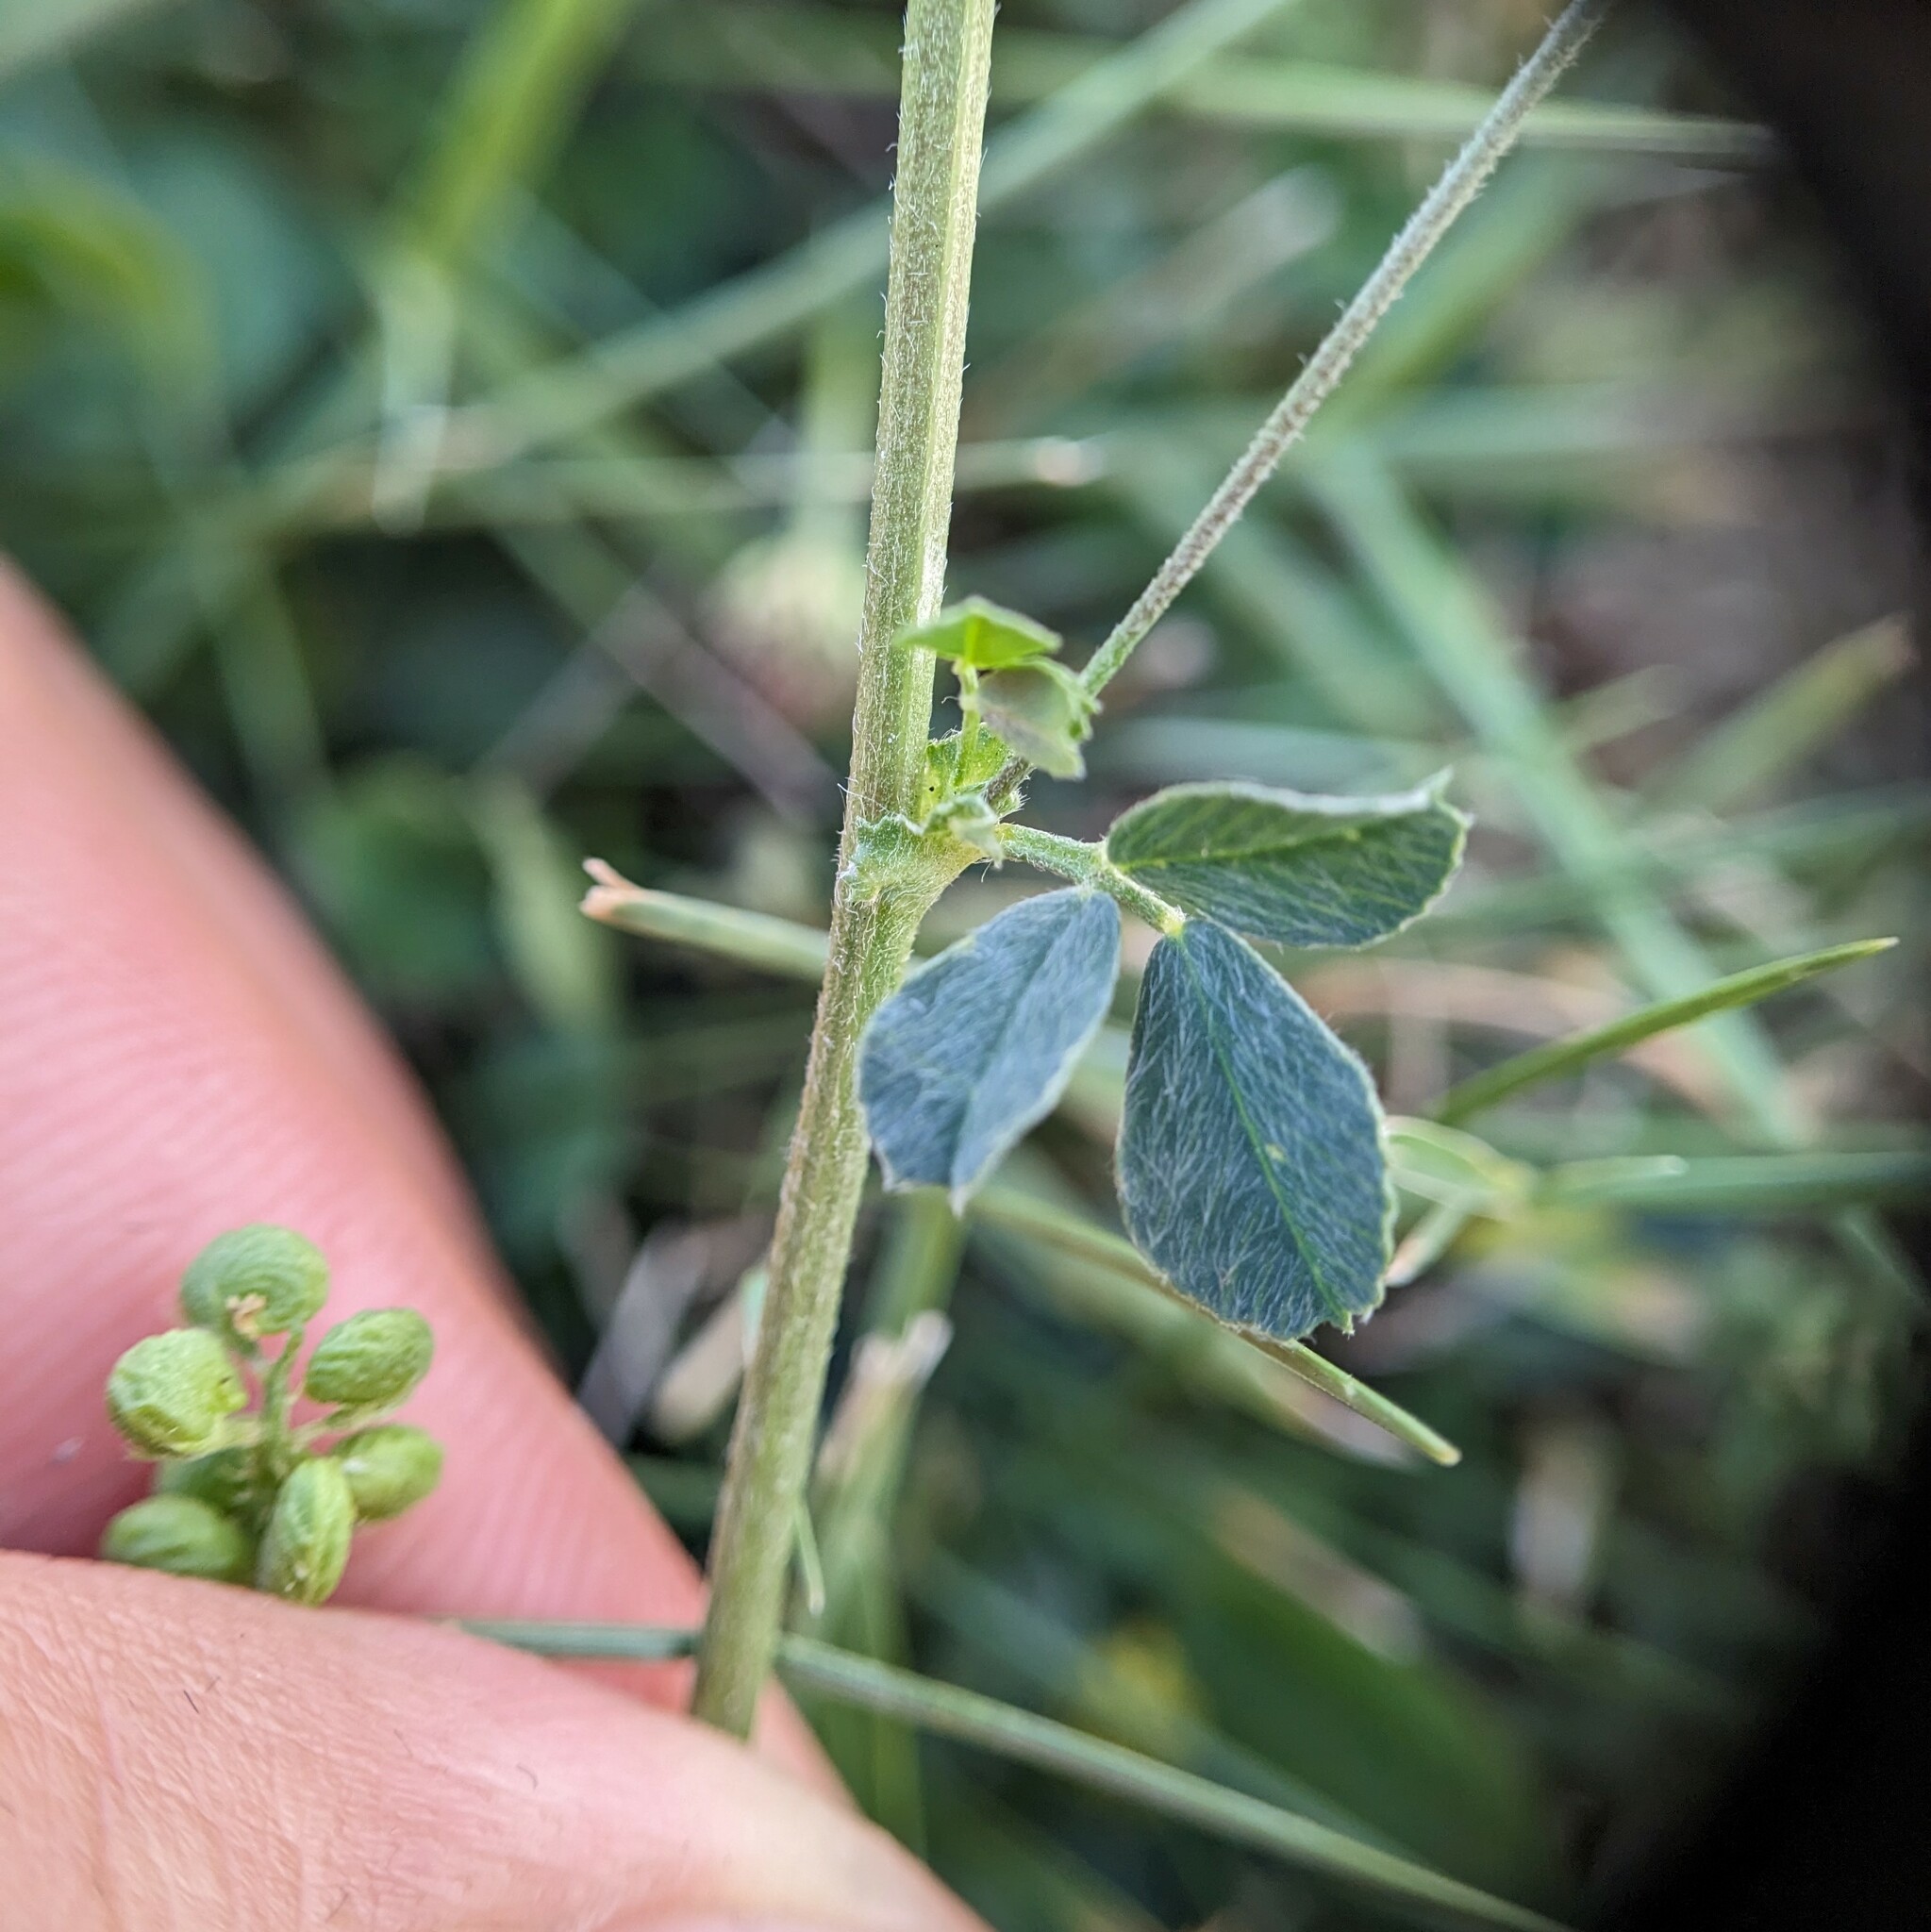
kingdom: Plantae
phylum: Tracheophyta
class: Magnoliopsida
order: Fabales
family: Fabaceae
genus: Medicago
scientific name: Medicago lupulina
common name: Black medick
